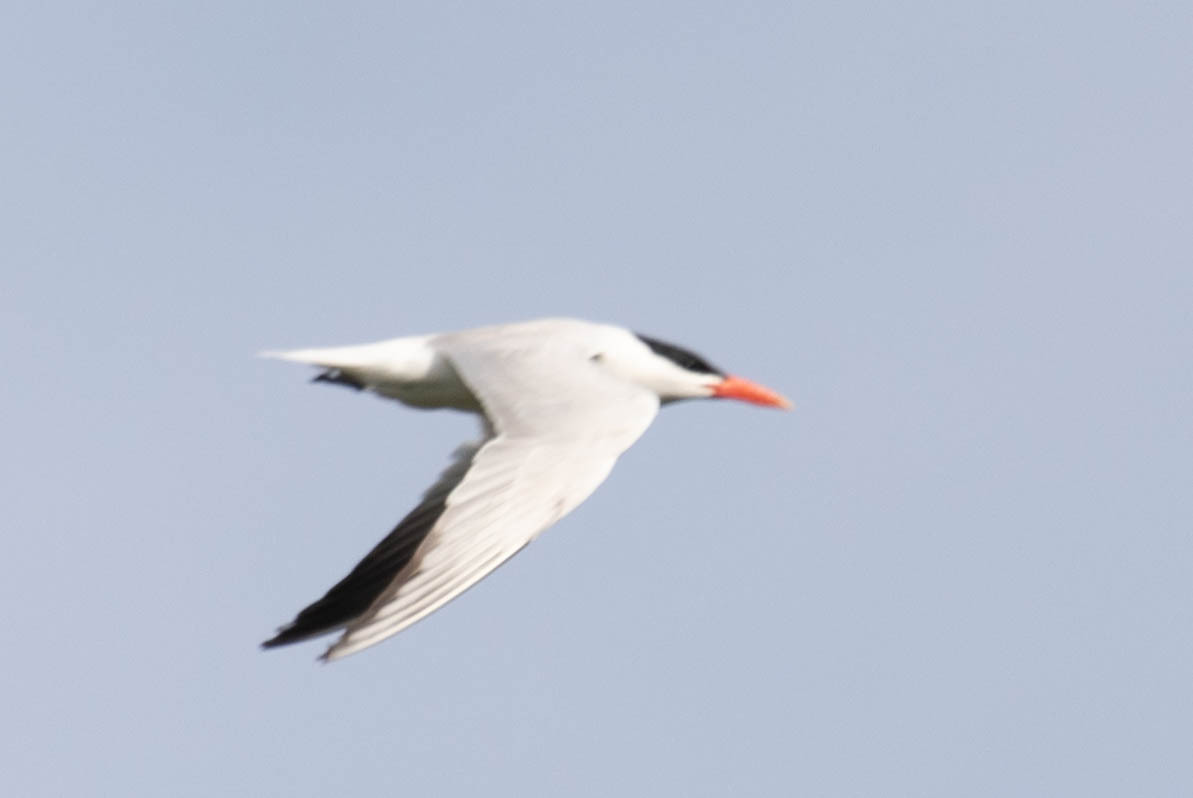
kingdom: Animalia
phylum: Chordata
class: Aves
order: Charadriiformes
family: Laridae
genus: Hydroprogne
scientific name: Hydroprogne caspia
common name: Caspian tern
